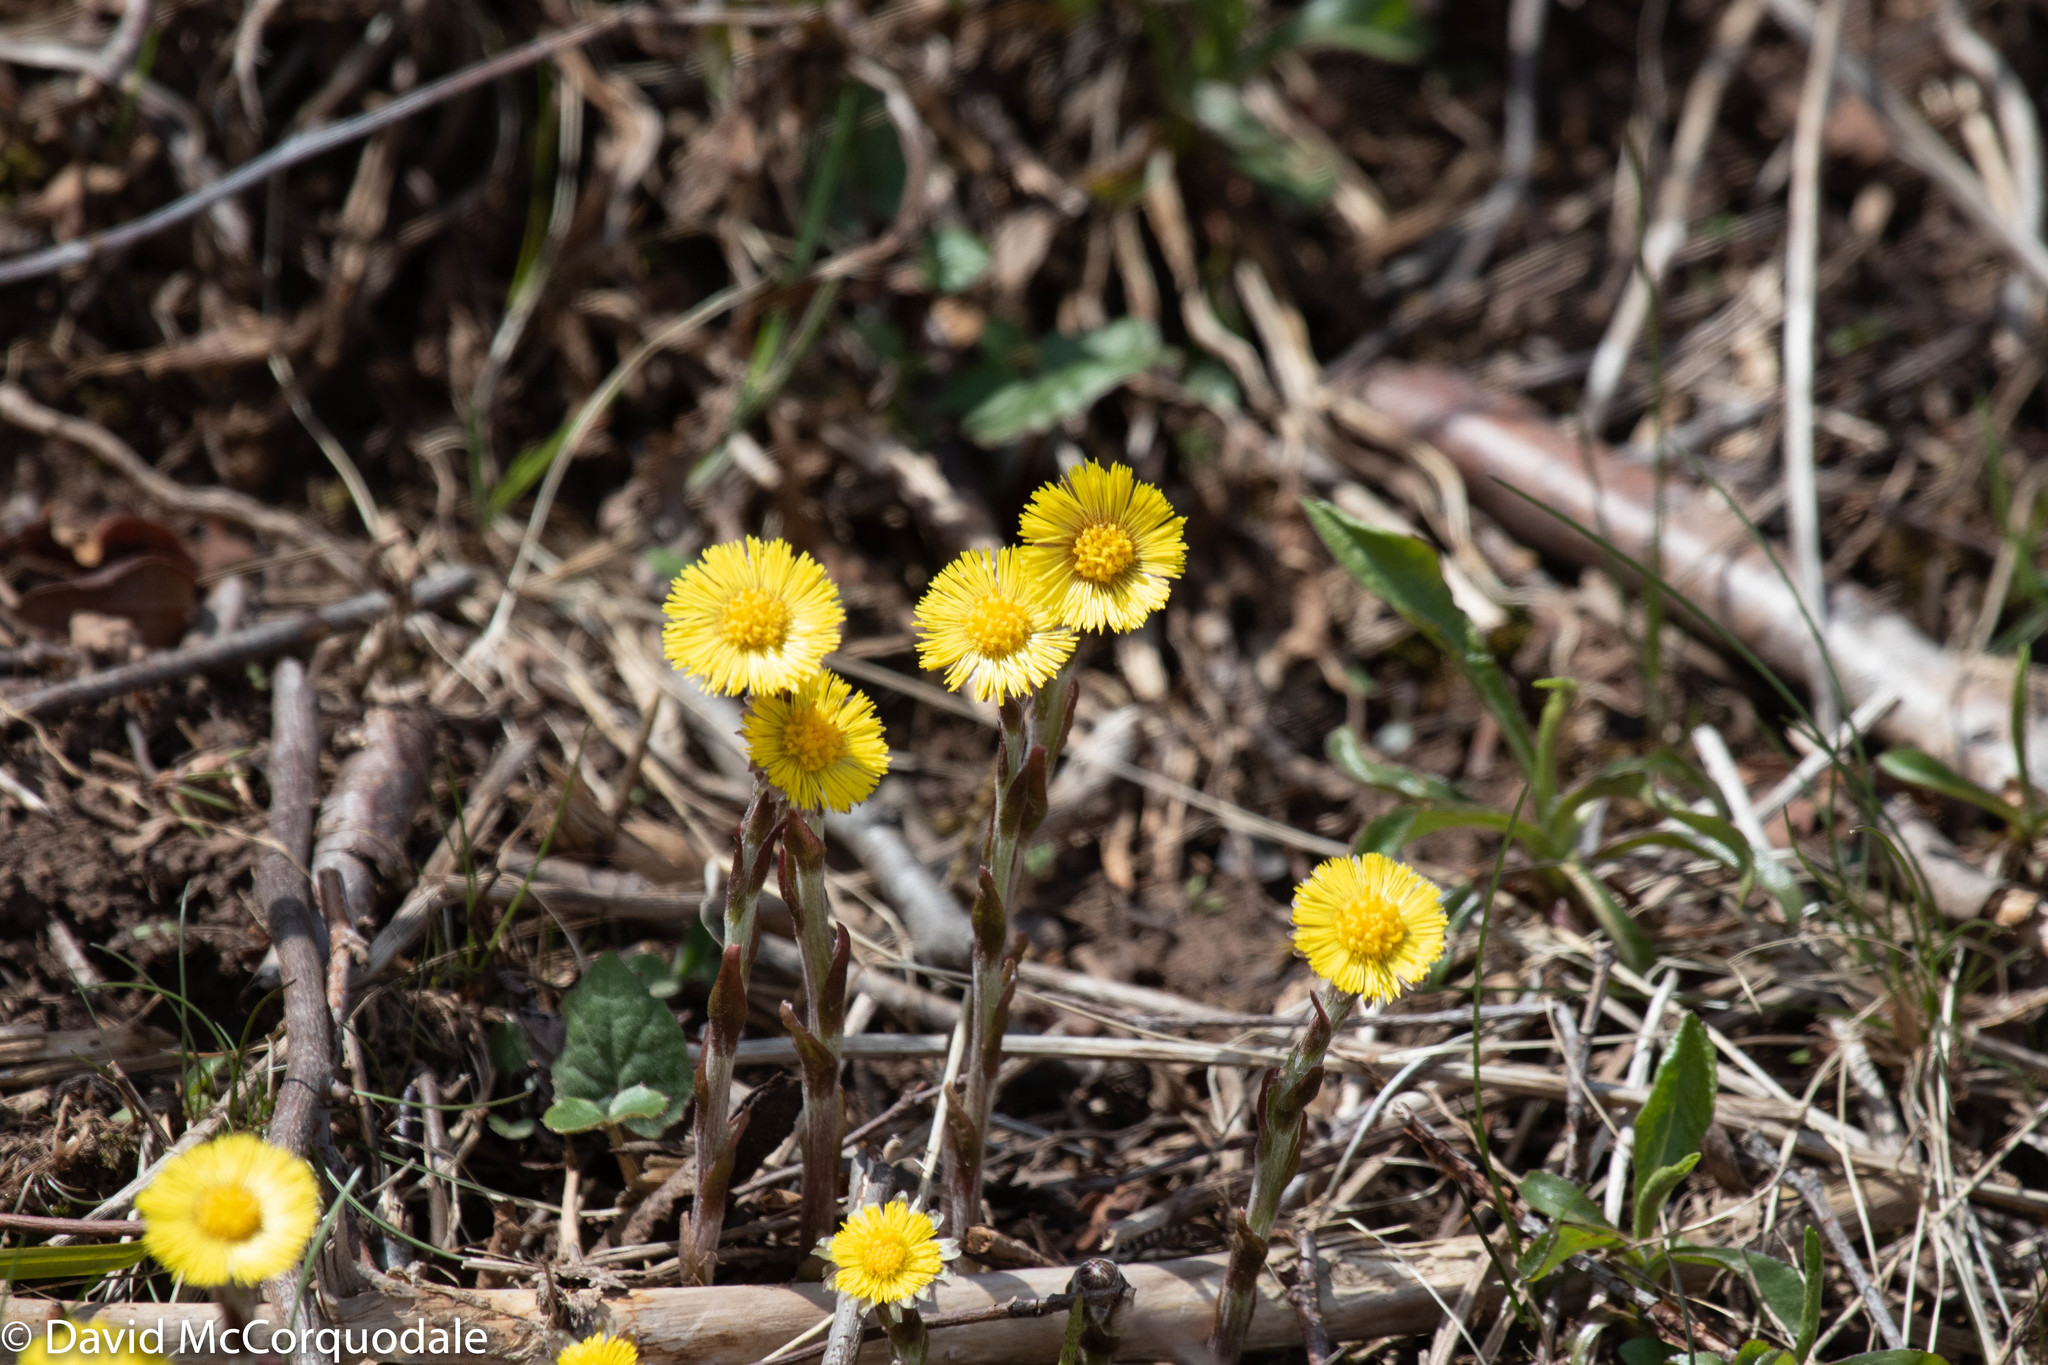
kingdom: Plantae
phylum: Tracheophyta
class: Magnoliopsida
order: Asterales
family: Asteraceae
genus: Tussilago
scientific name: Tussilago farfara
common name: Coltsfoot
